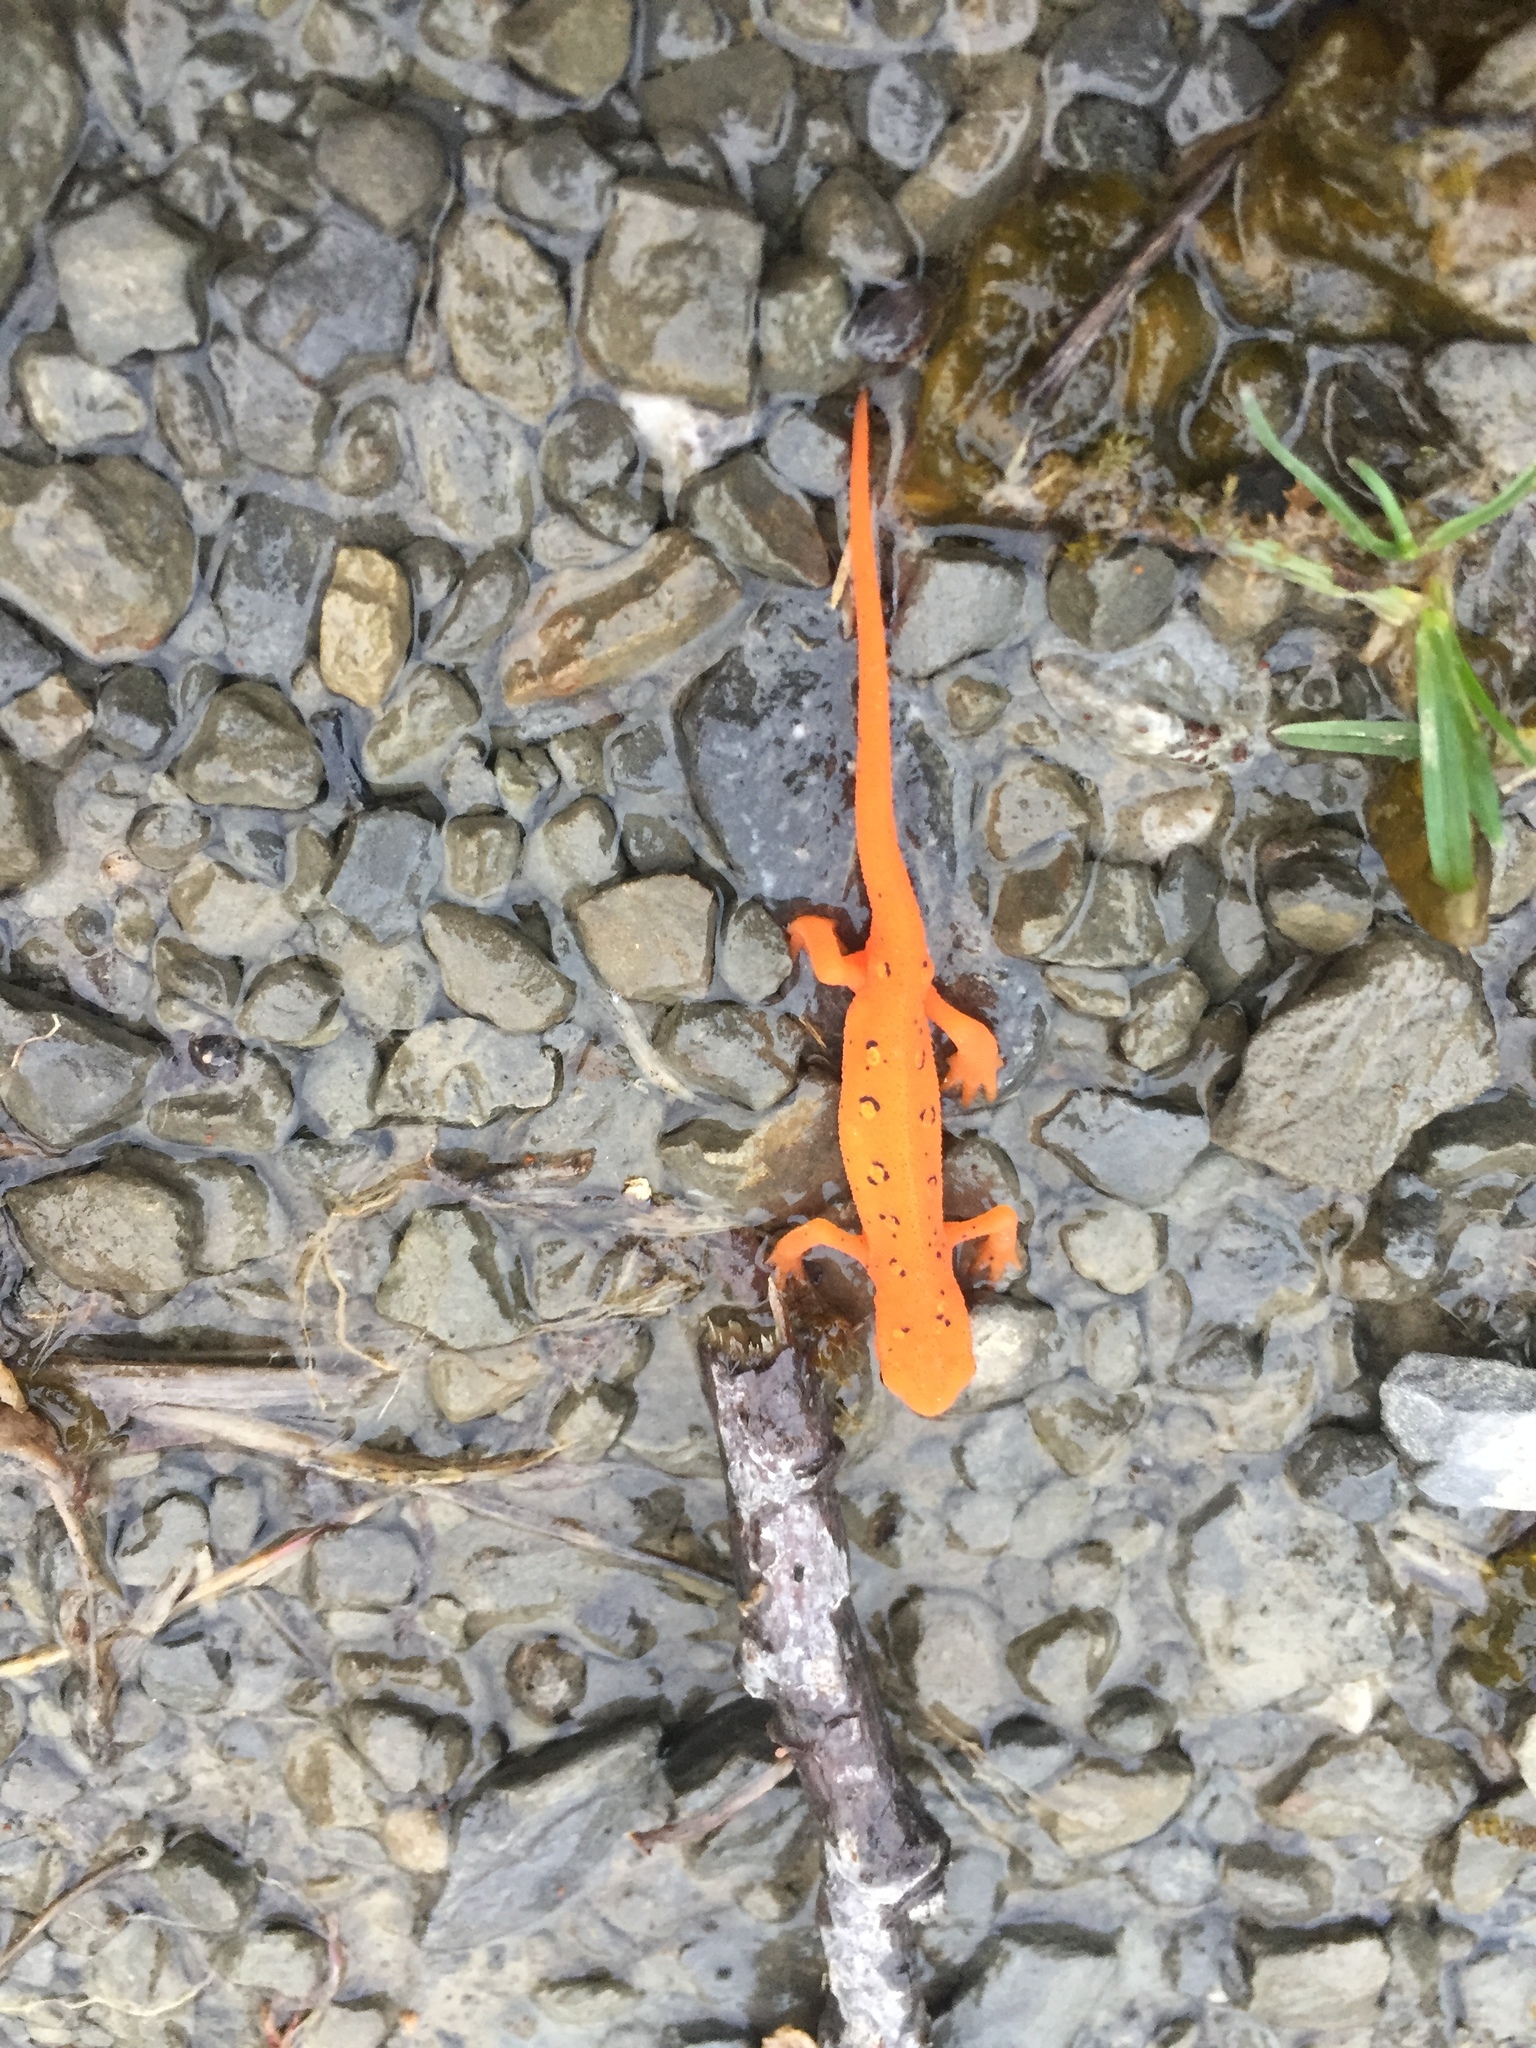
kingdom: Animalia
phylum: Chordata
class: Amphibia
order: Caudata
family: Salamandridae
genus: Notophthalmus
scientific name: Notophthalmus viridescens
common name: Eastern newt
